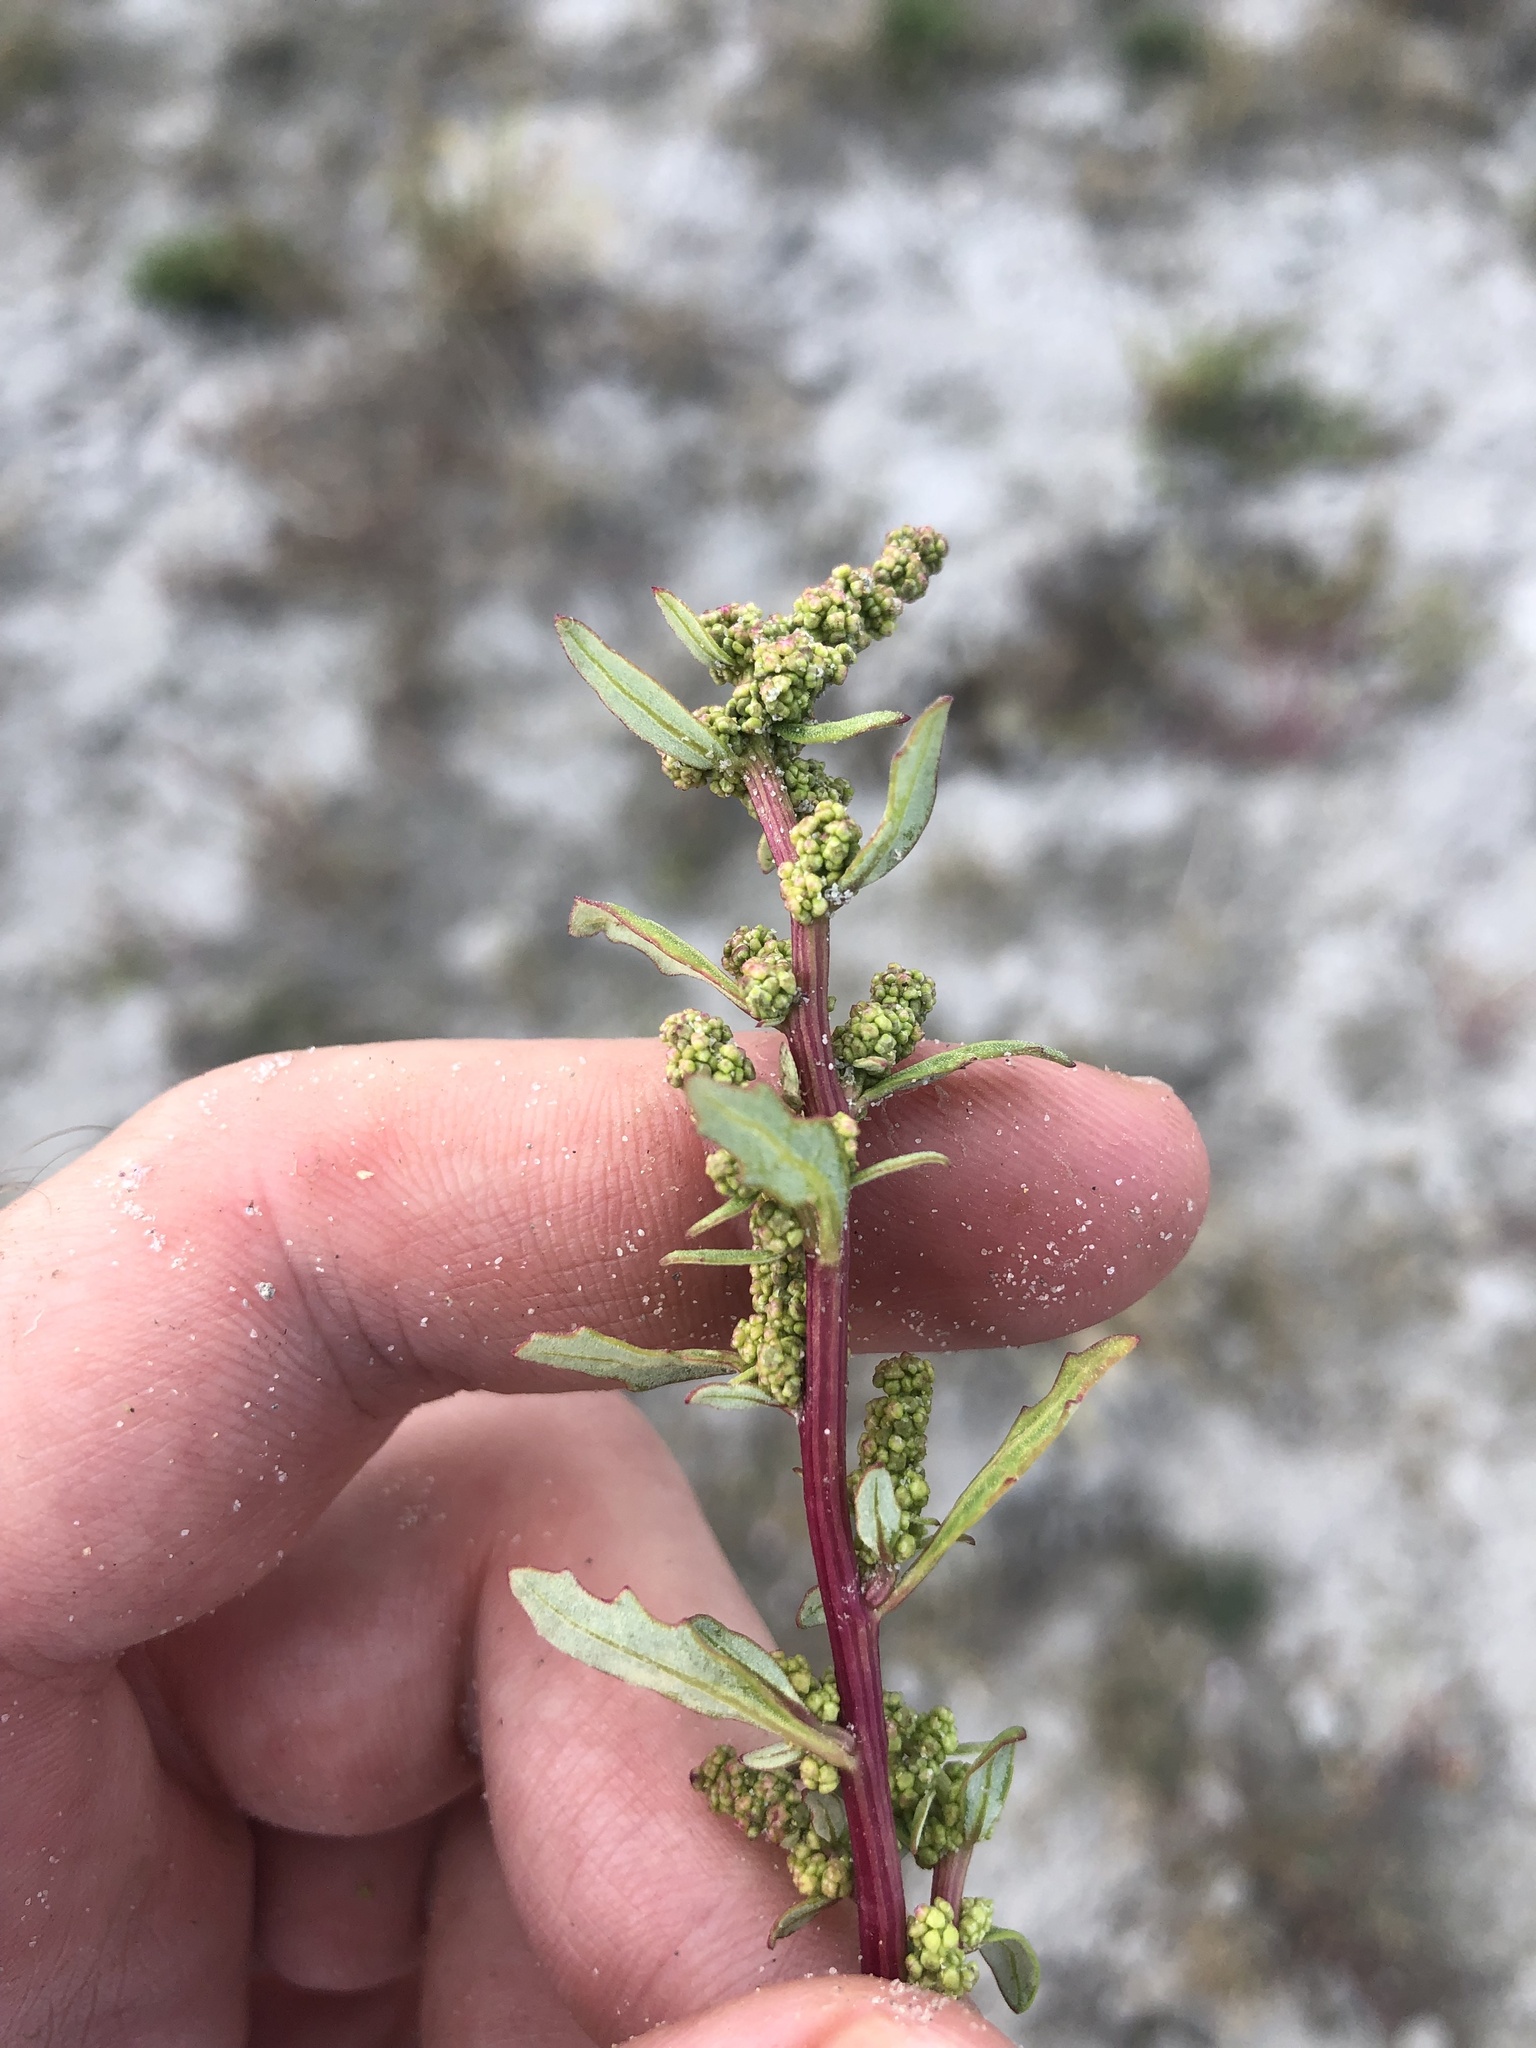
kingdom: Plantae
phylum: Tracheophyta
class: Magnoliopsida
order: Caryophyllales
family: Amaranthaceae
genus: Oxybasis
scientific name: Oxybasis glauca
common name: Glaucous goosefoot
